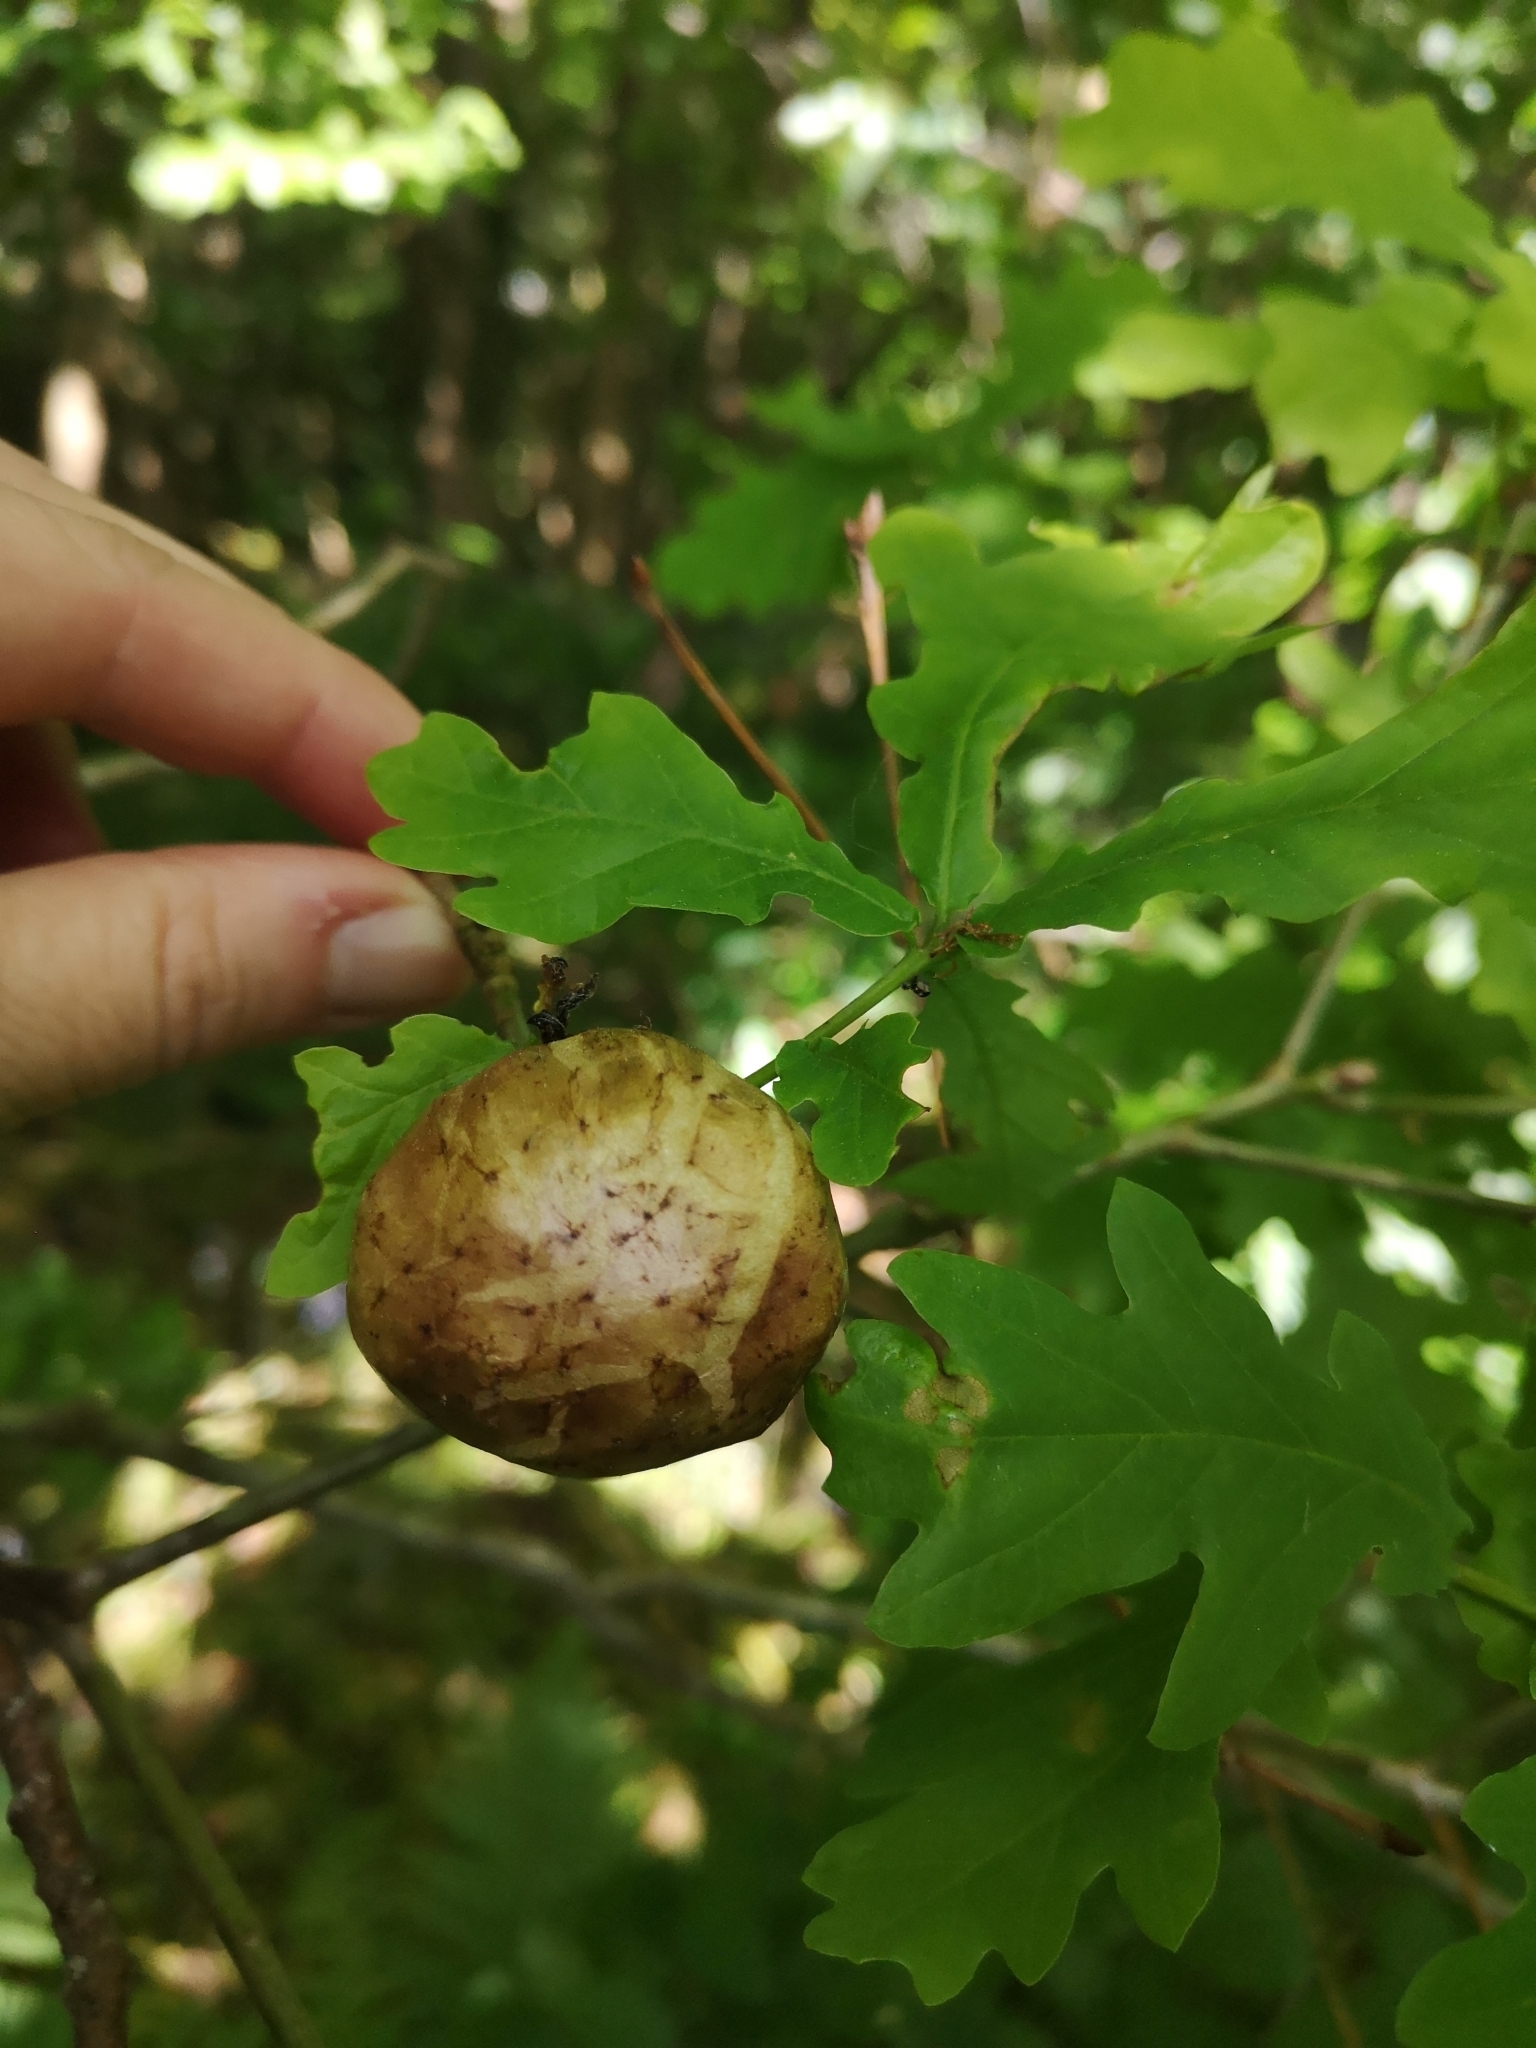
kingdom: Animalia
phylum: Arthropoda
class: Insecta
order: Hymenoptera
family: Cynipidae
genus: Biorhiza
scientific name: Biorhiza pallida
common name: Oak apple
